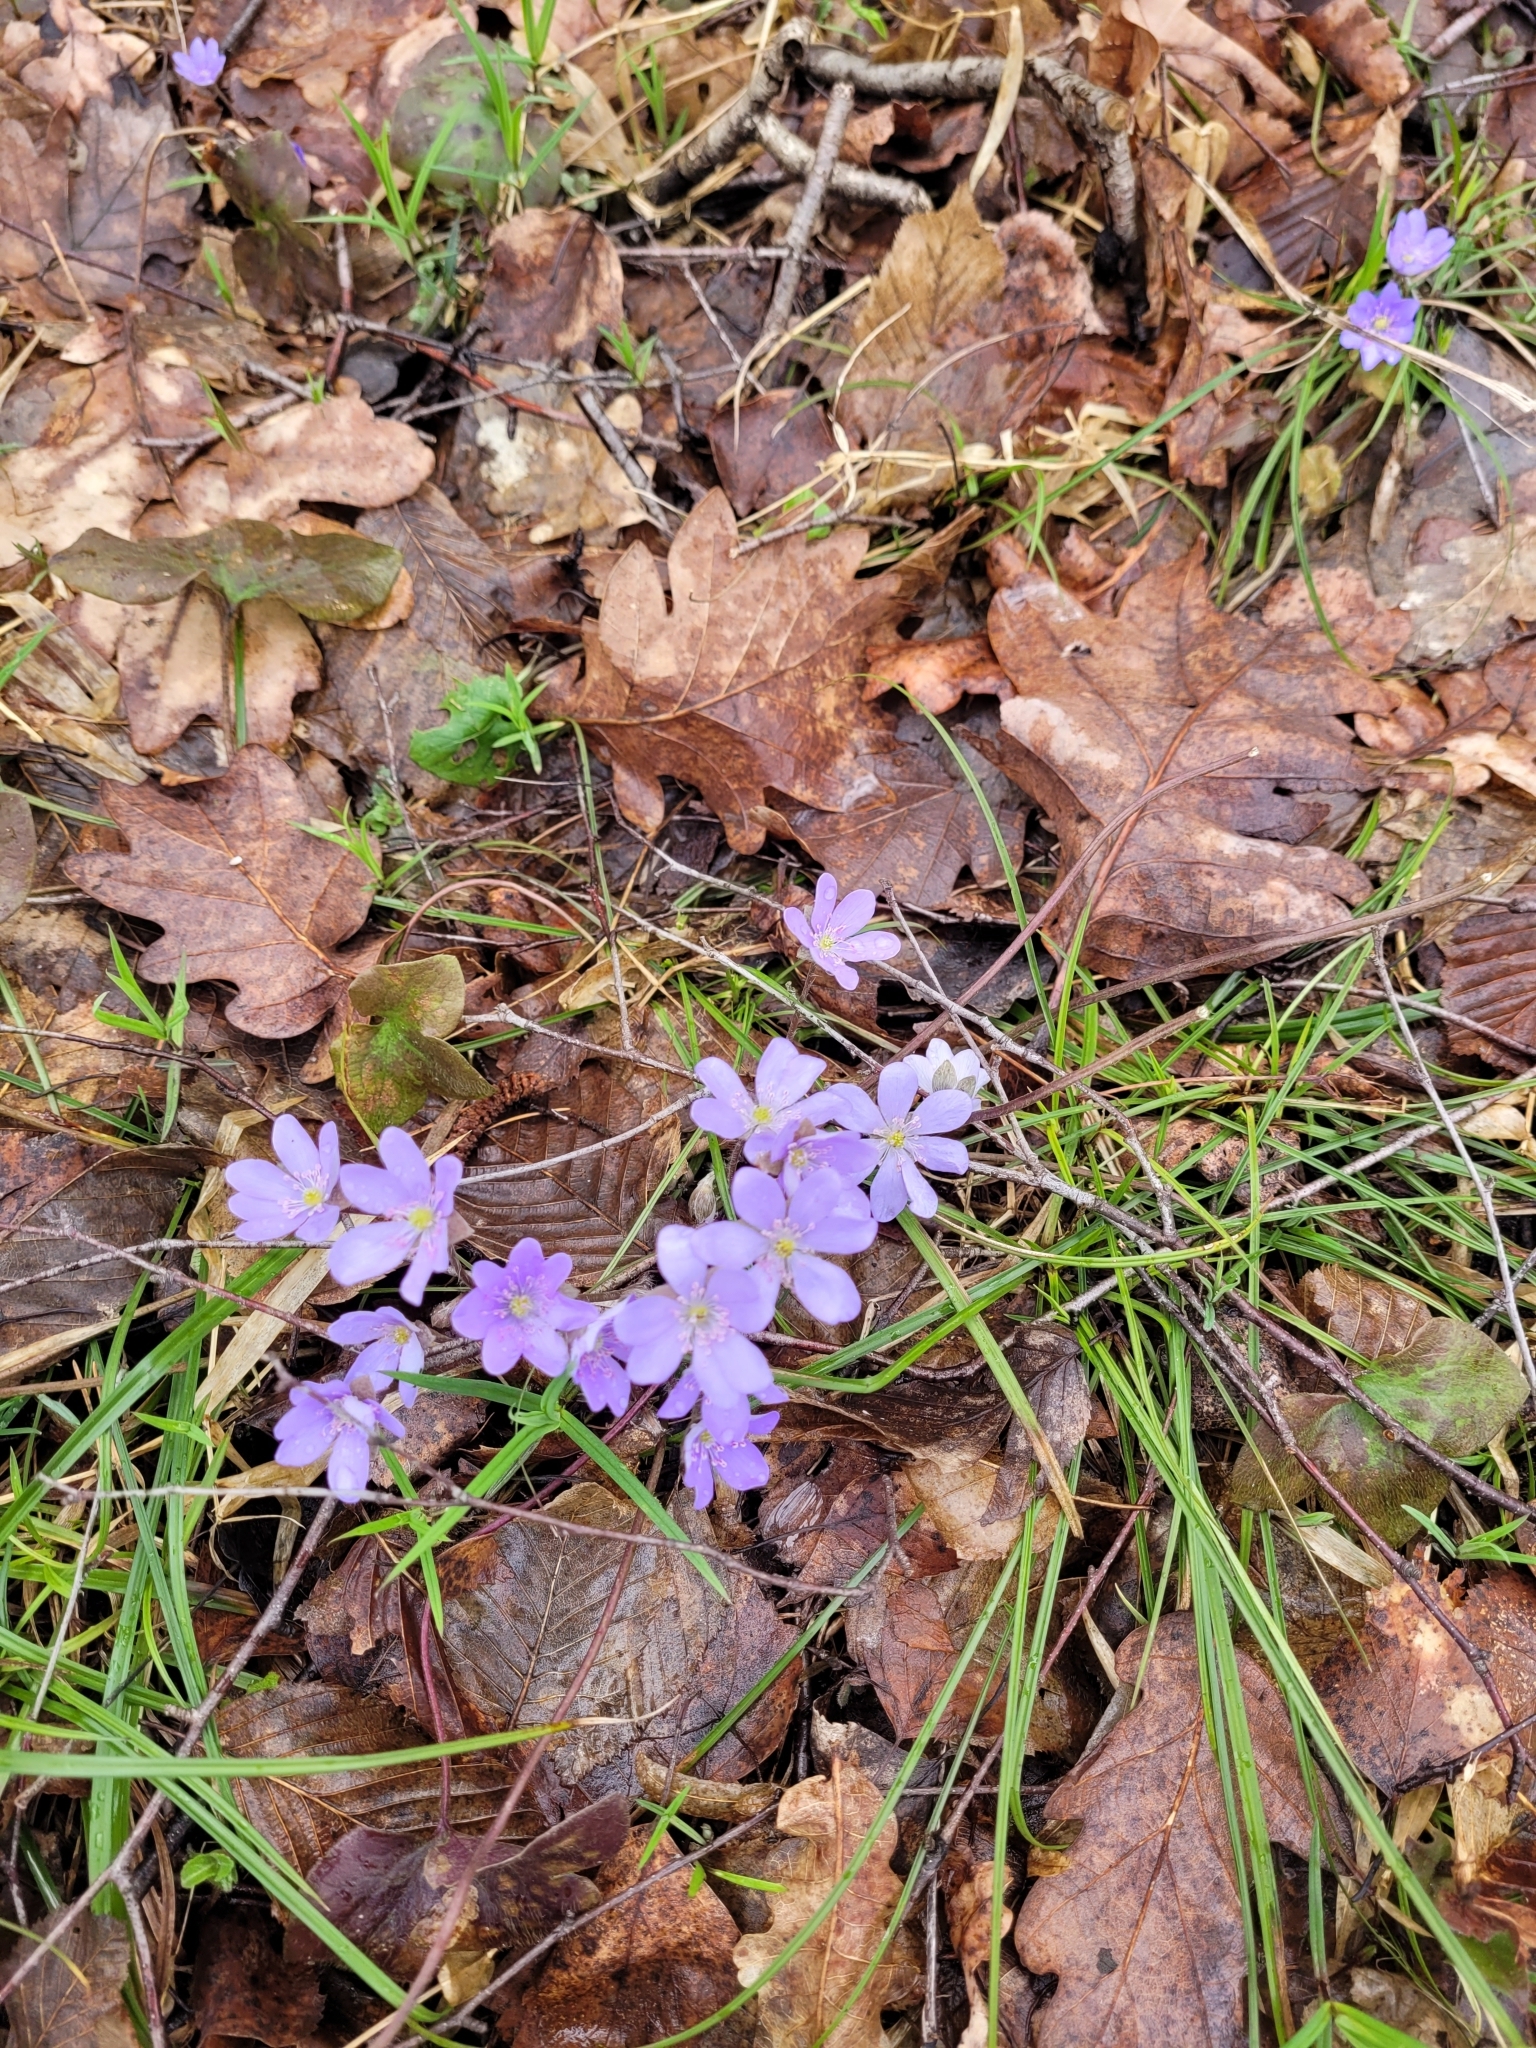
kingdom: Plantae
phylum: Tracheophyta
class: Magnoliopsida
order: Ranunculales
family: Ranunculaceae
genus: Hepatica
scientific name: Hepatica nobilis
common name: Liverleaf
